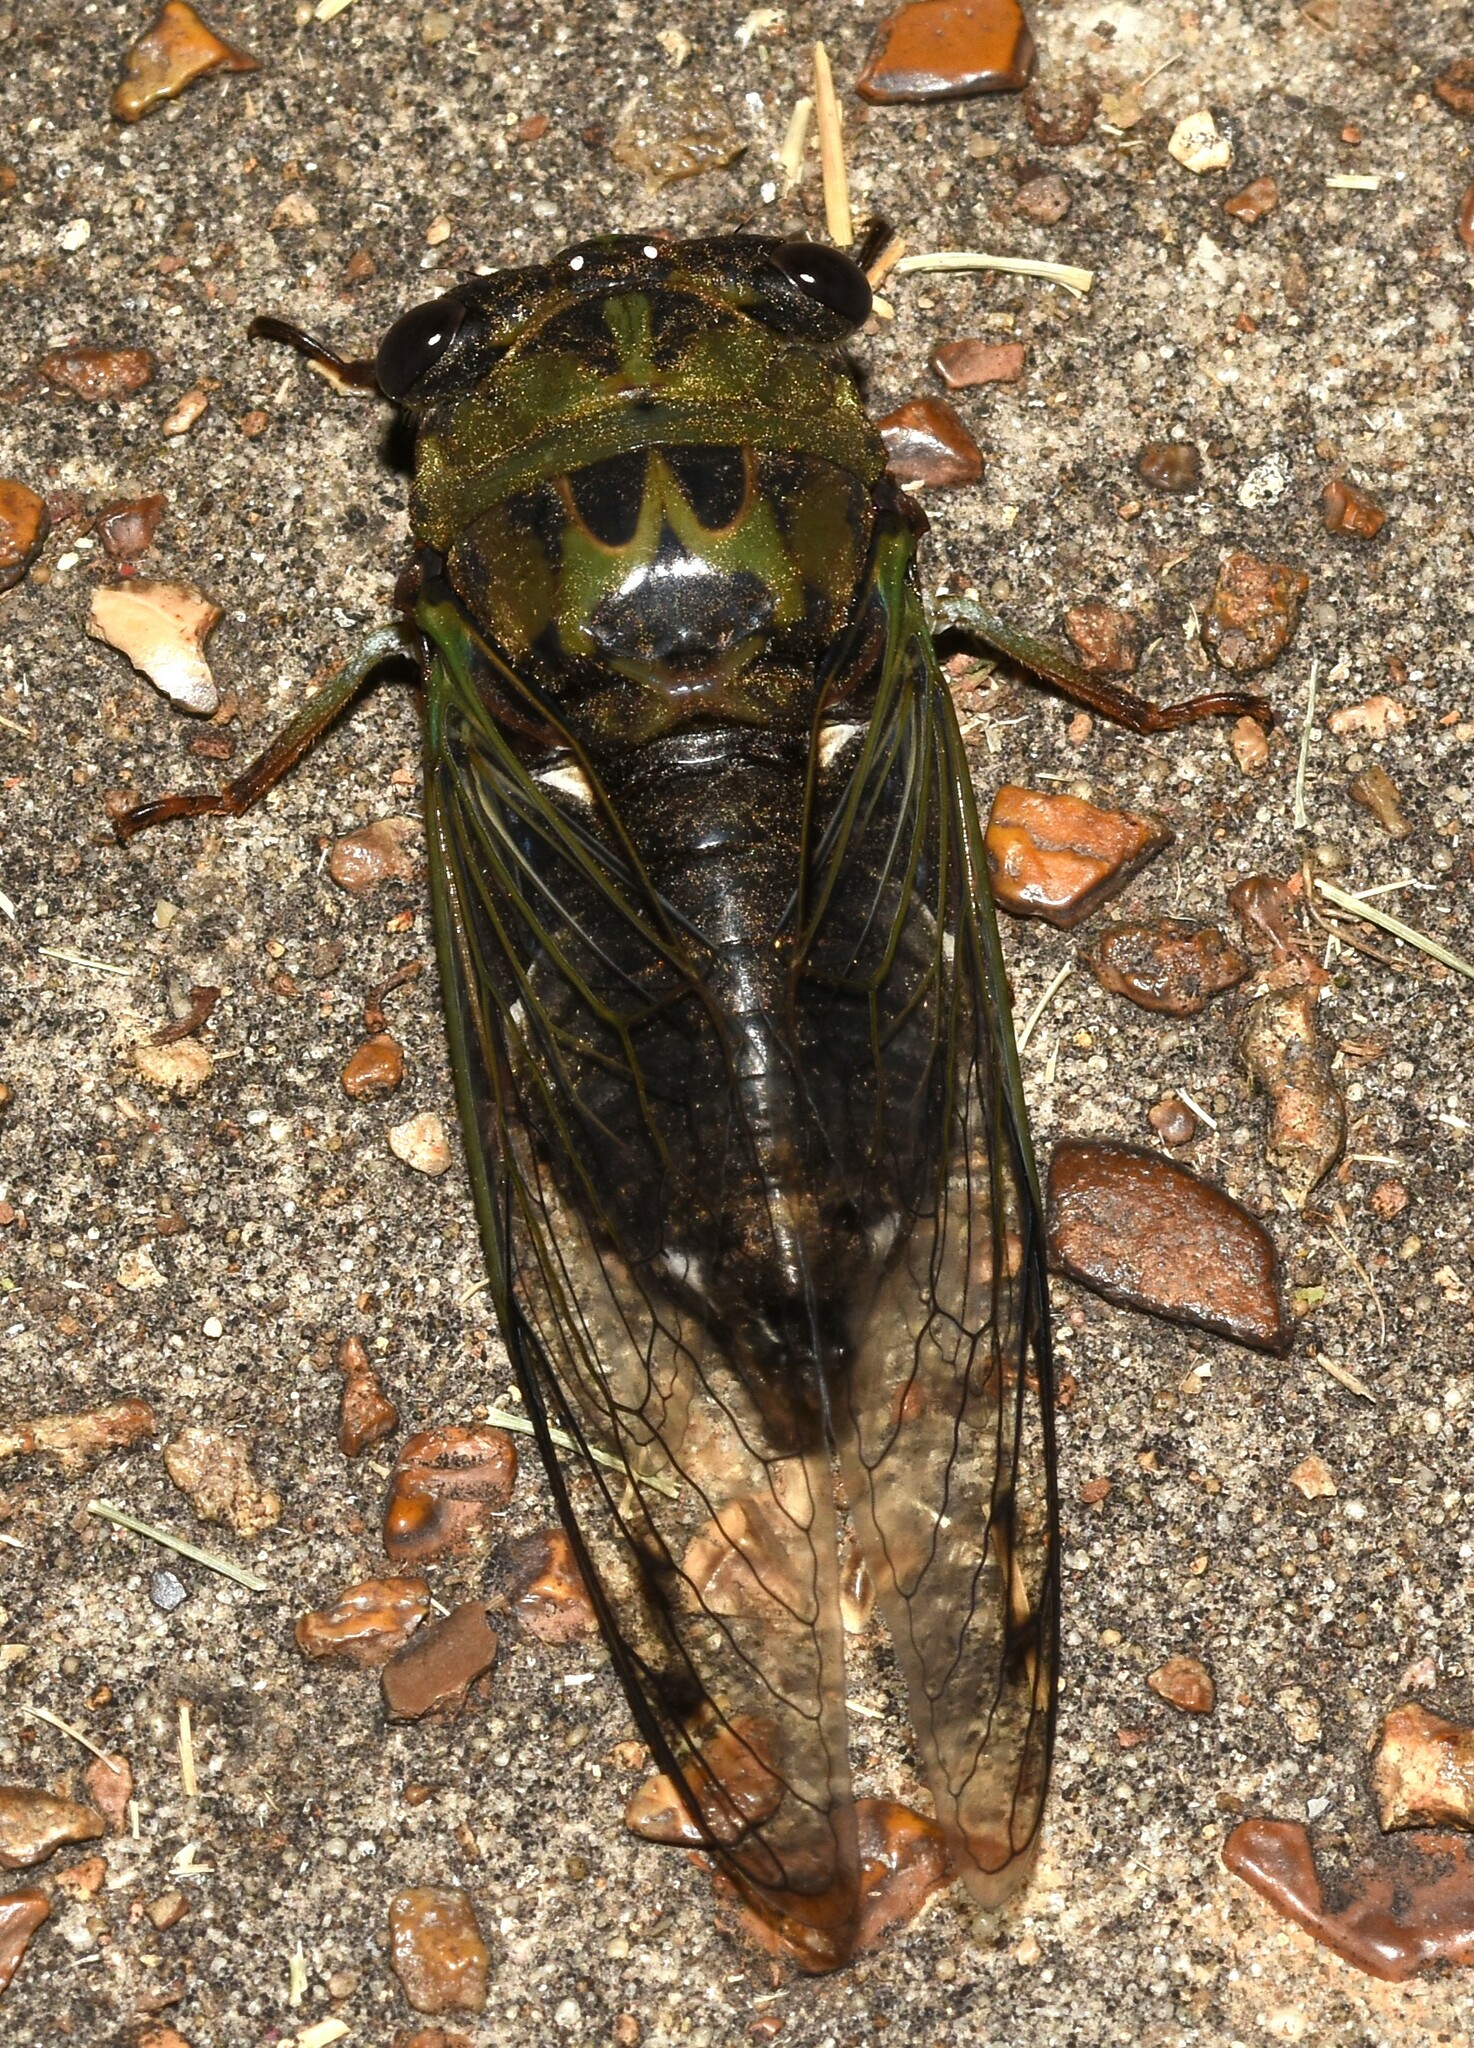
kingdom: Animalia
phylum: Arthropoda
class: Insecta
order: Hemiptera
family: Cicadidae
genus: Neotibicen
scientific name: Neotibicen pruinosus
